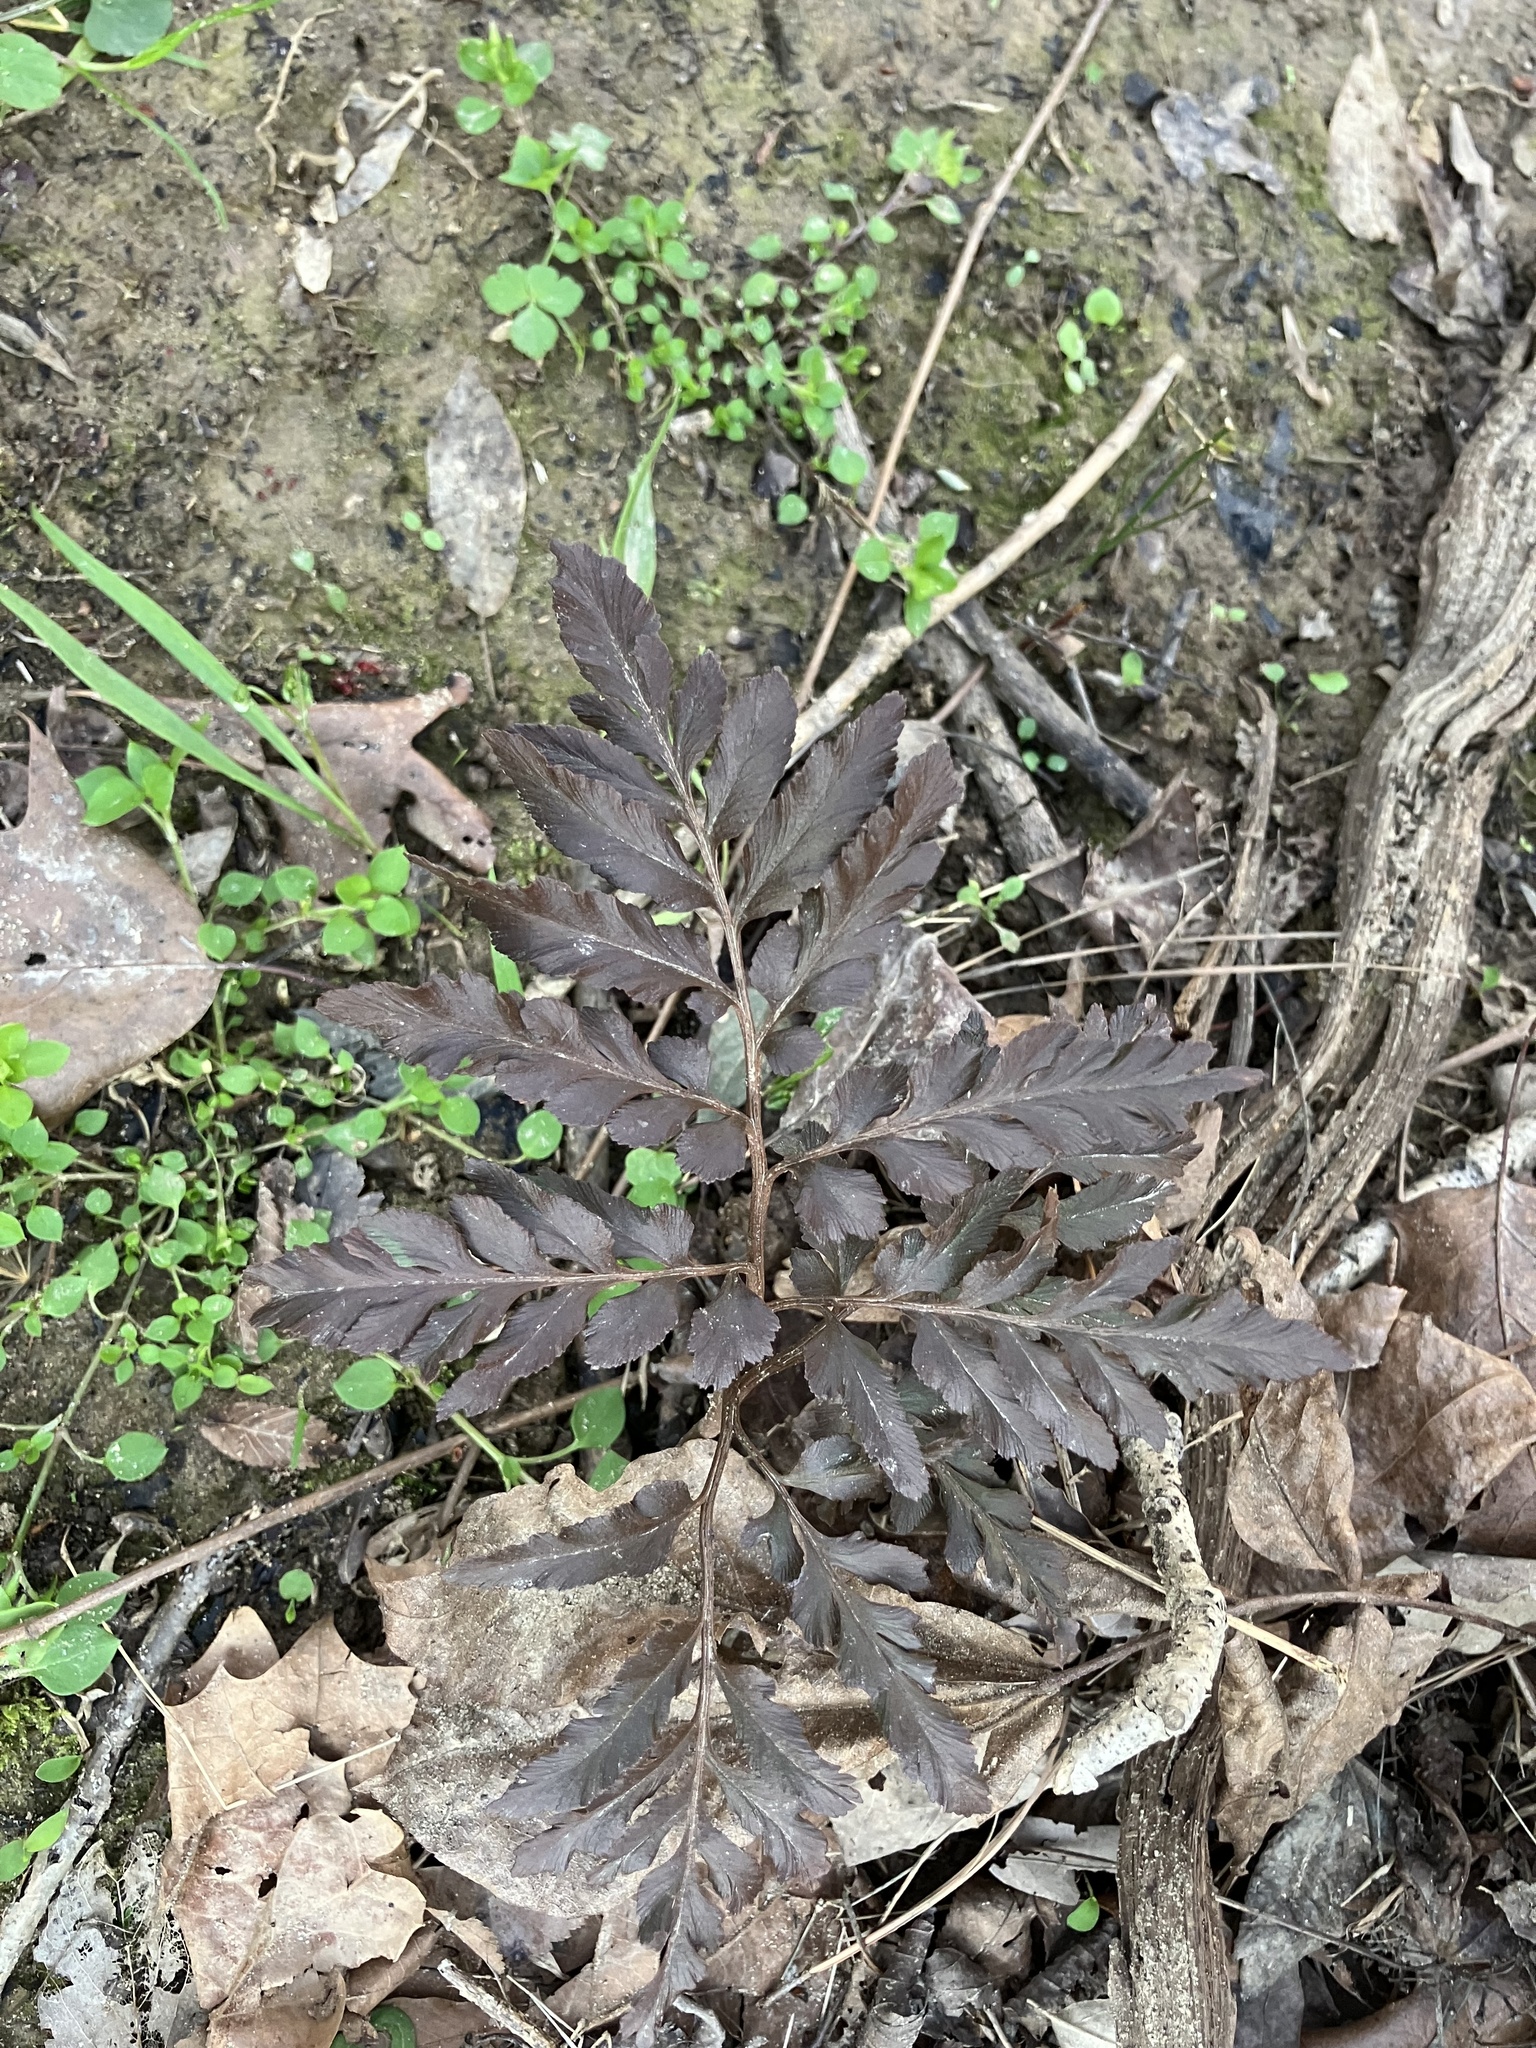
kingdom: Plantae
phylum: Tracheophyta
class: Polypodiopsida
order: Ophioglossales
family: Ophioglossaceae
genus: Sceptridium
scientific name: Sceptridium dissectum
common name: Cut-leaved grapefern
